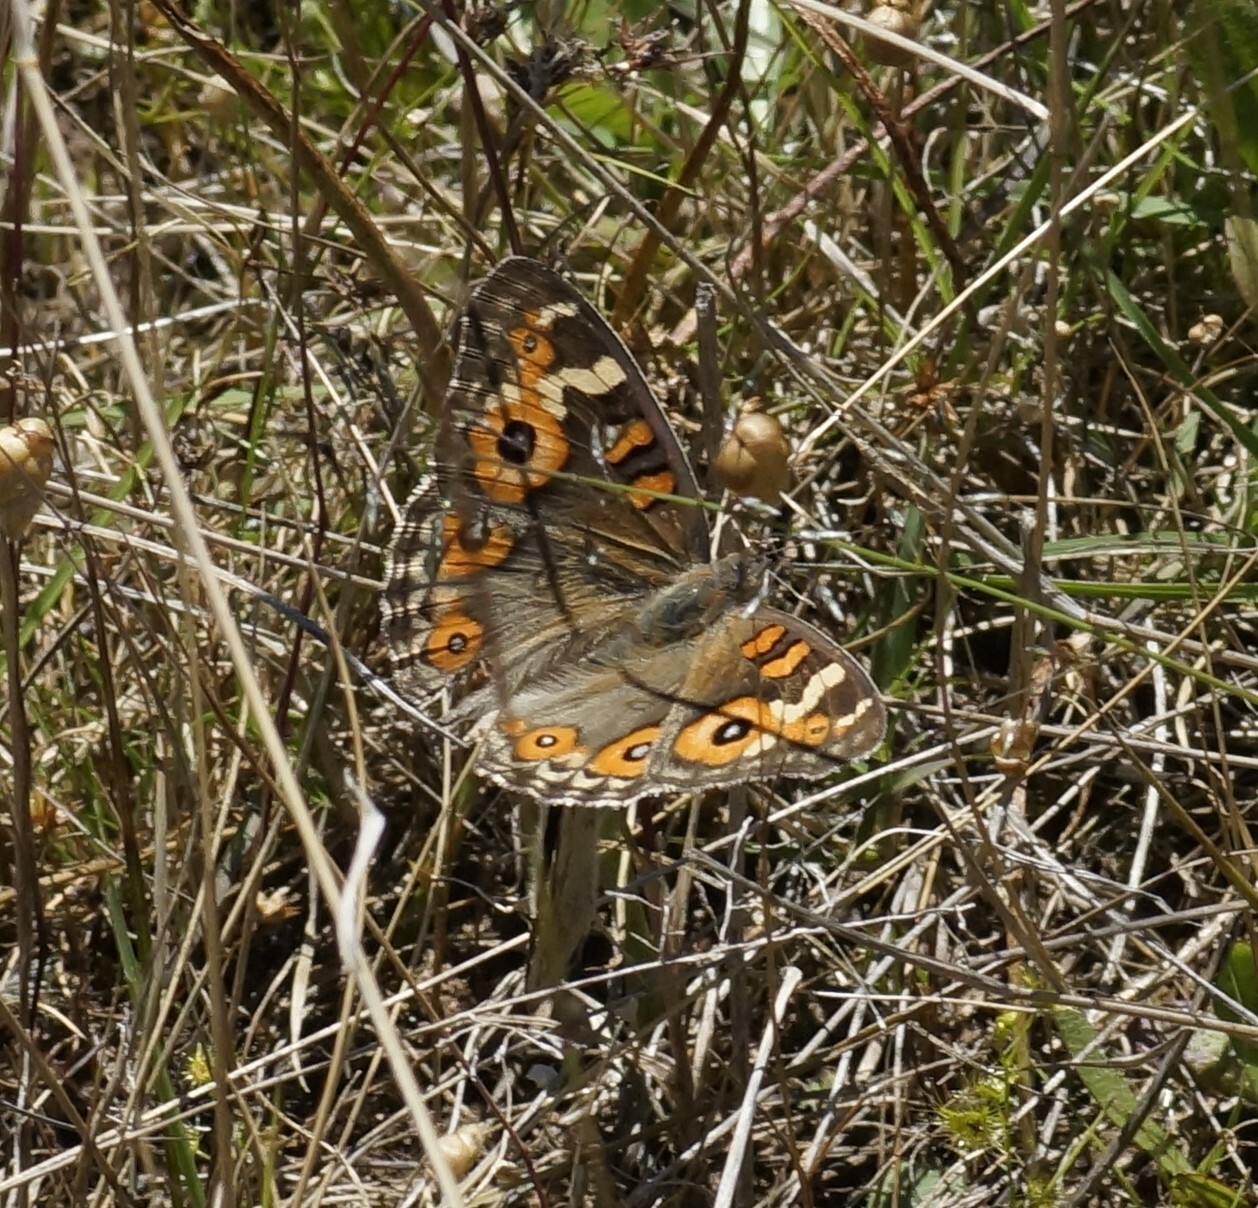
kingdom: Animalia
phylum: Arthropoda
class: Insecta
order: Lepidoptera
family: Nymphalidae
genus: Junonia
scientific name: Junonia villida
